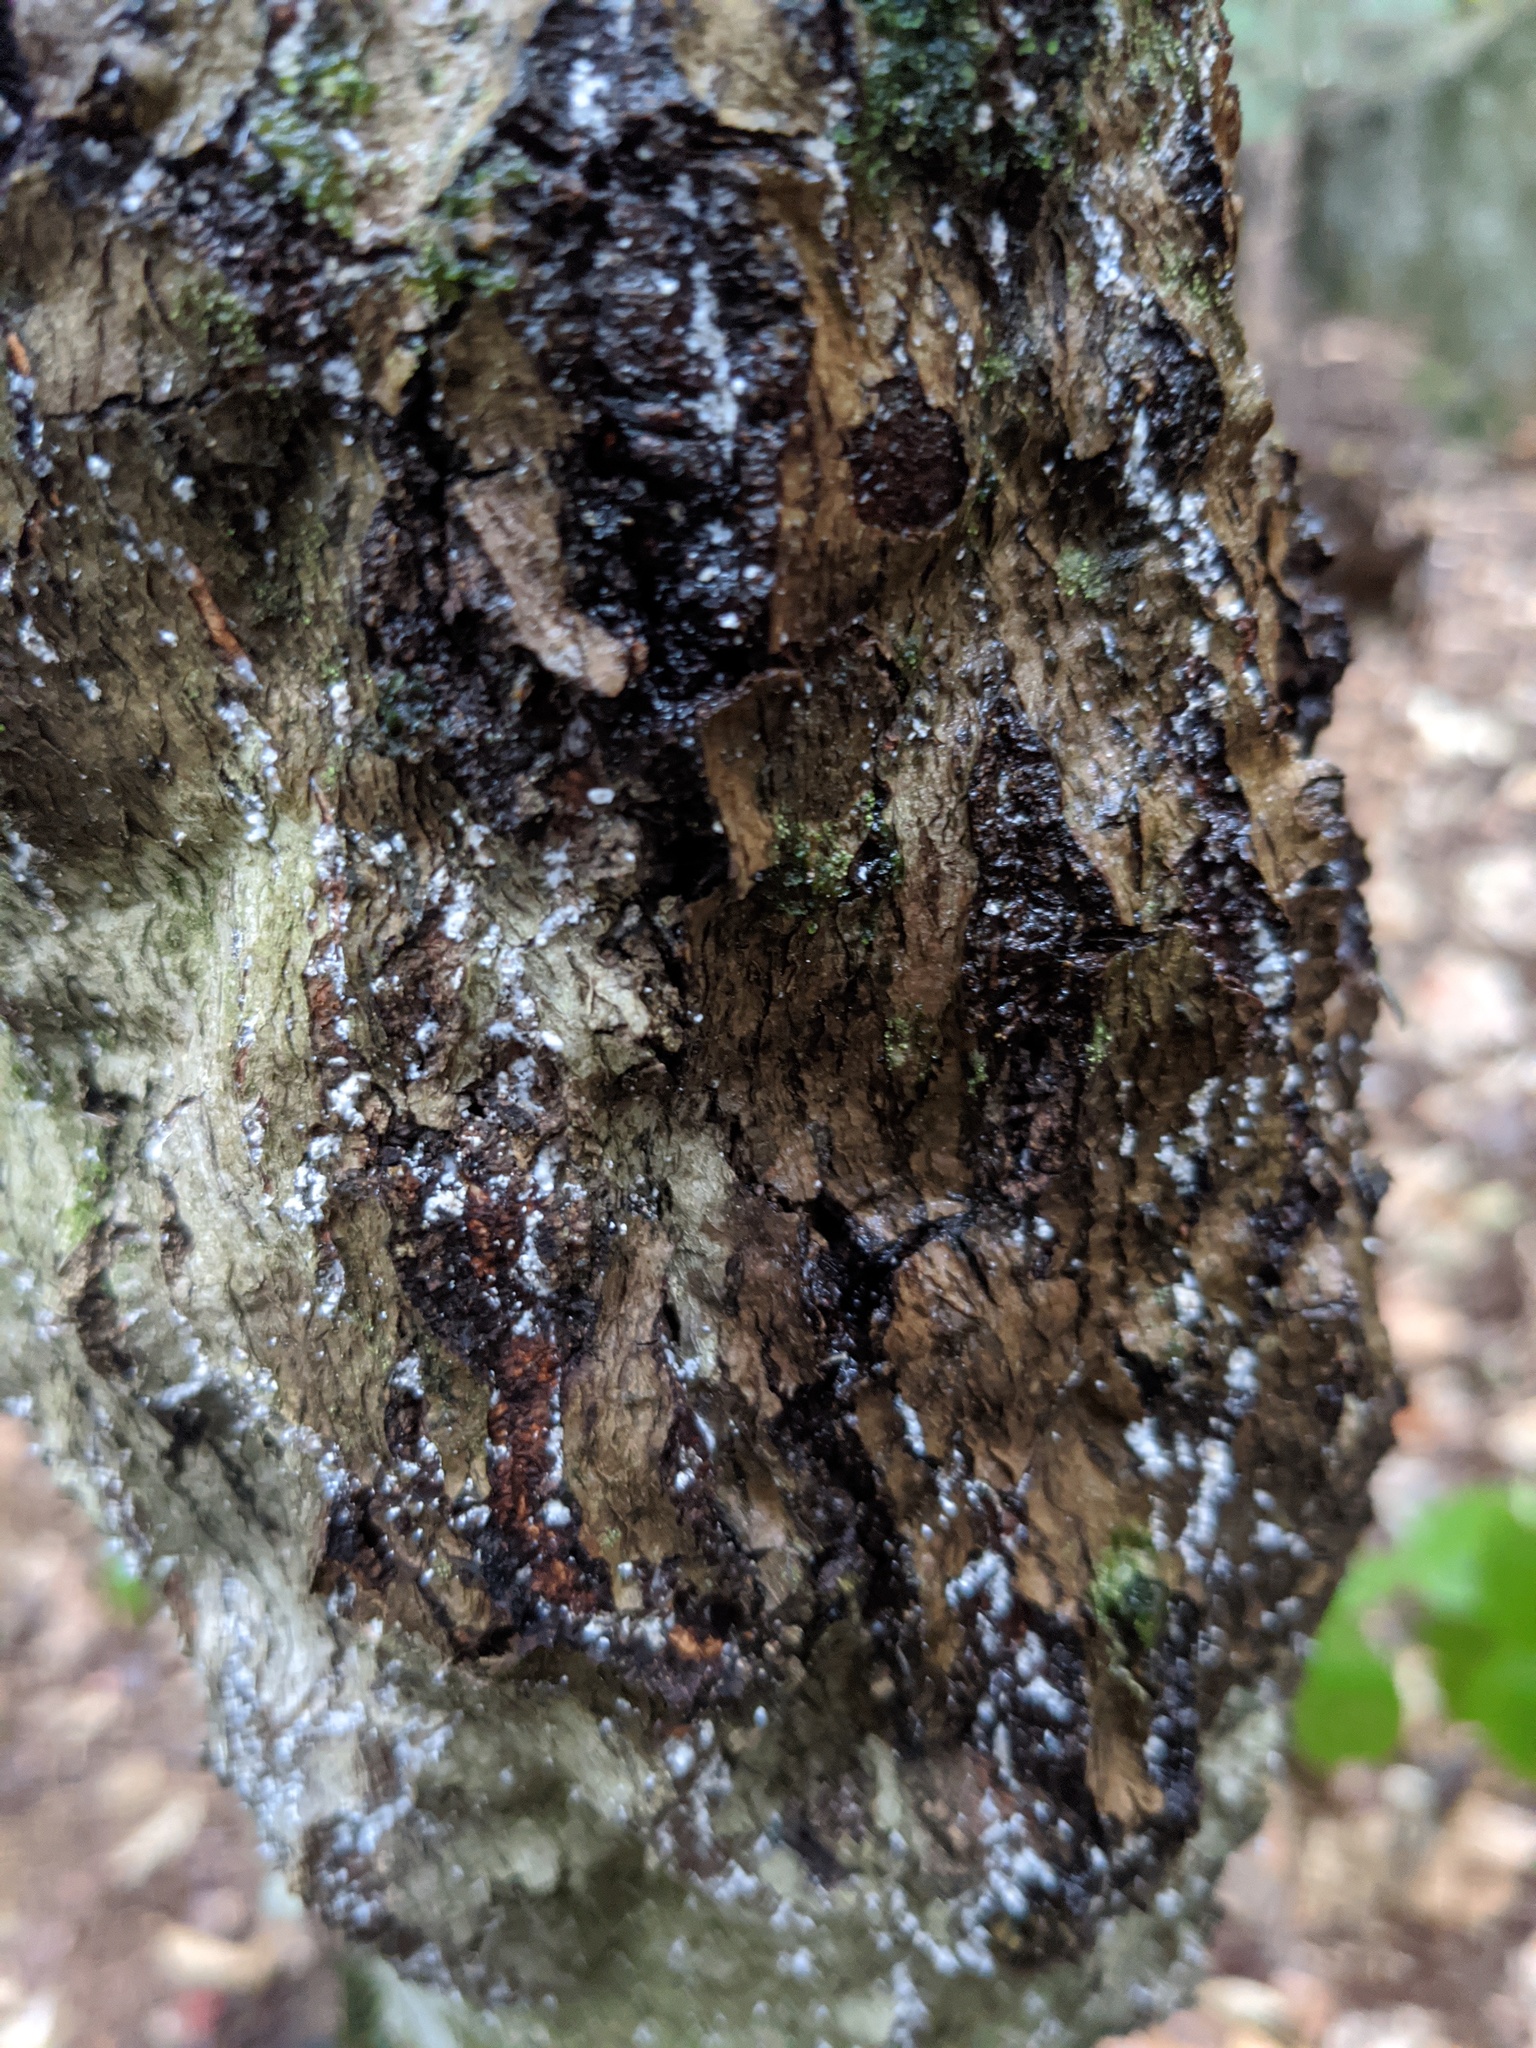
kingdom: Animalia
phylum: Arthropoda
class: Insecta
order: Hemiptera
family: Eriococcidae
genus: Cryptococcus
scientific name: Cryptococcus fagisuga
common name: Beech scale
